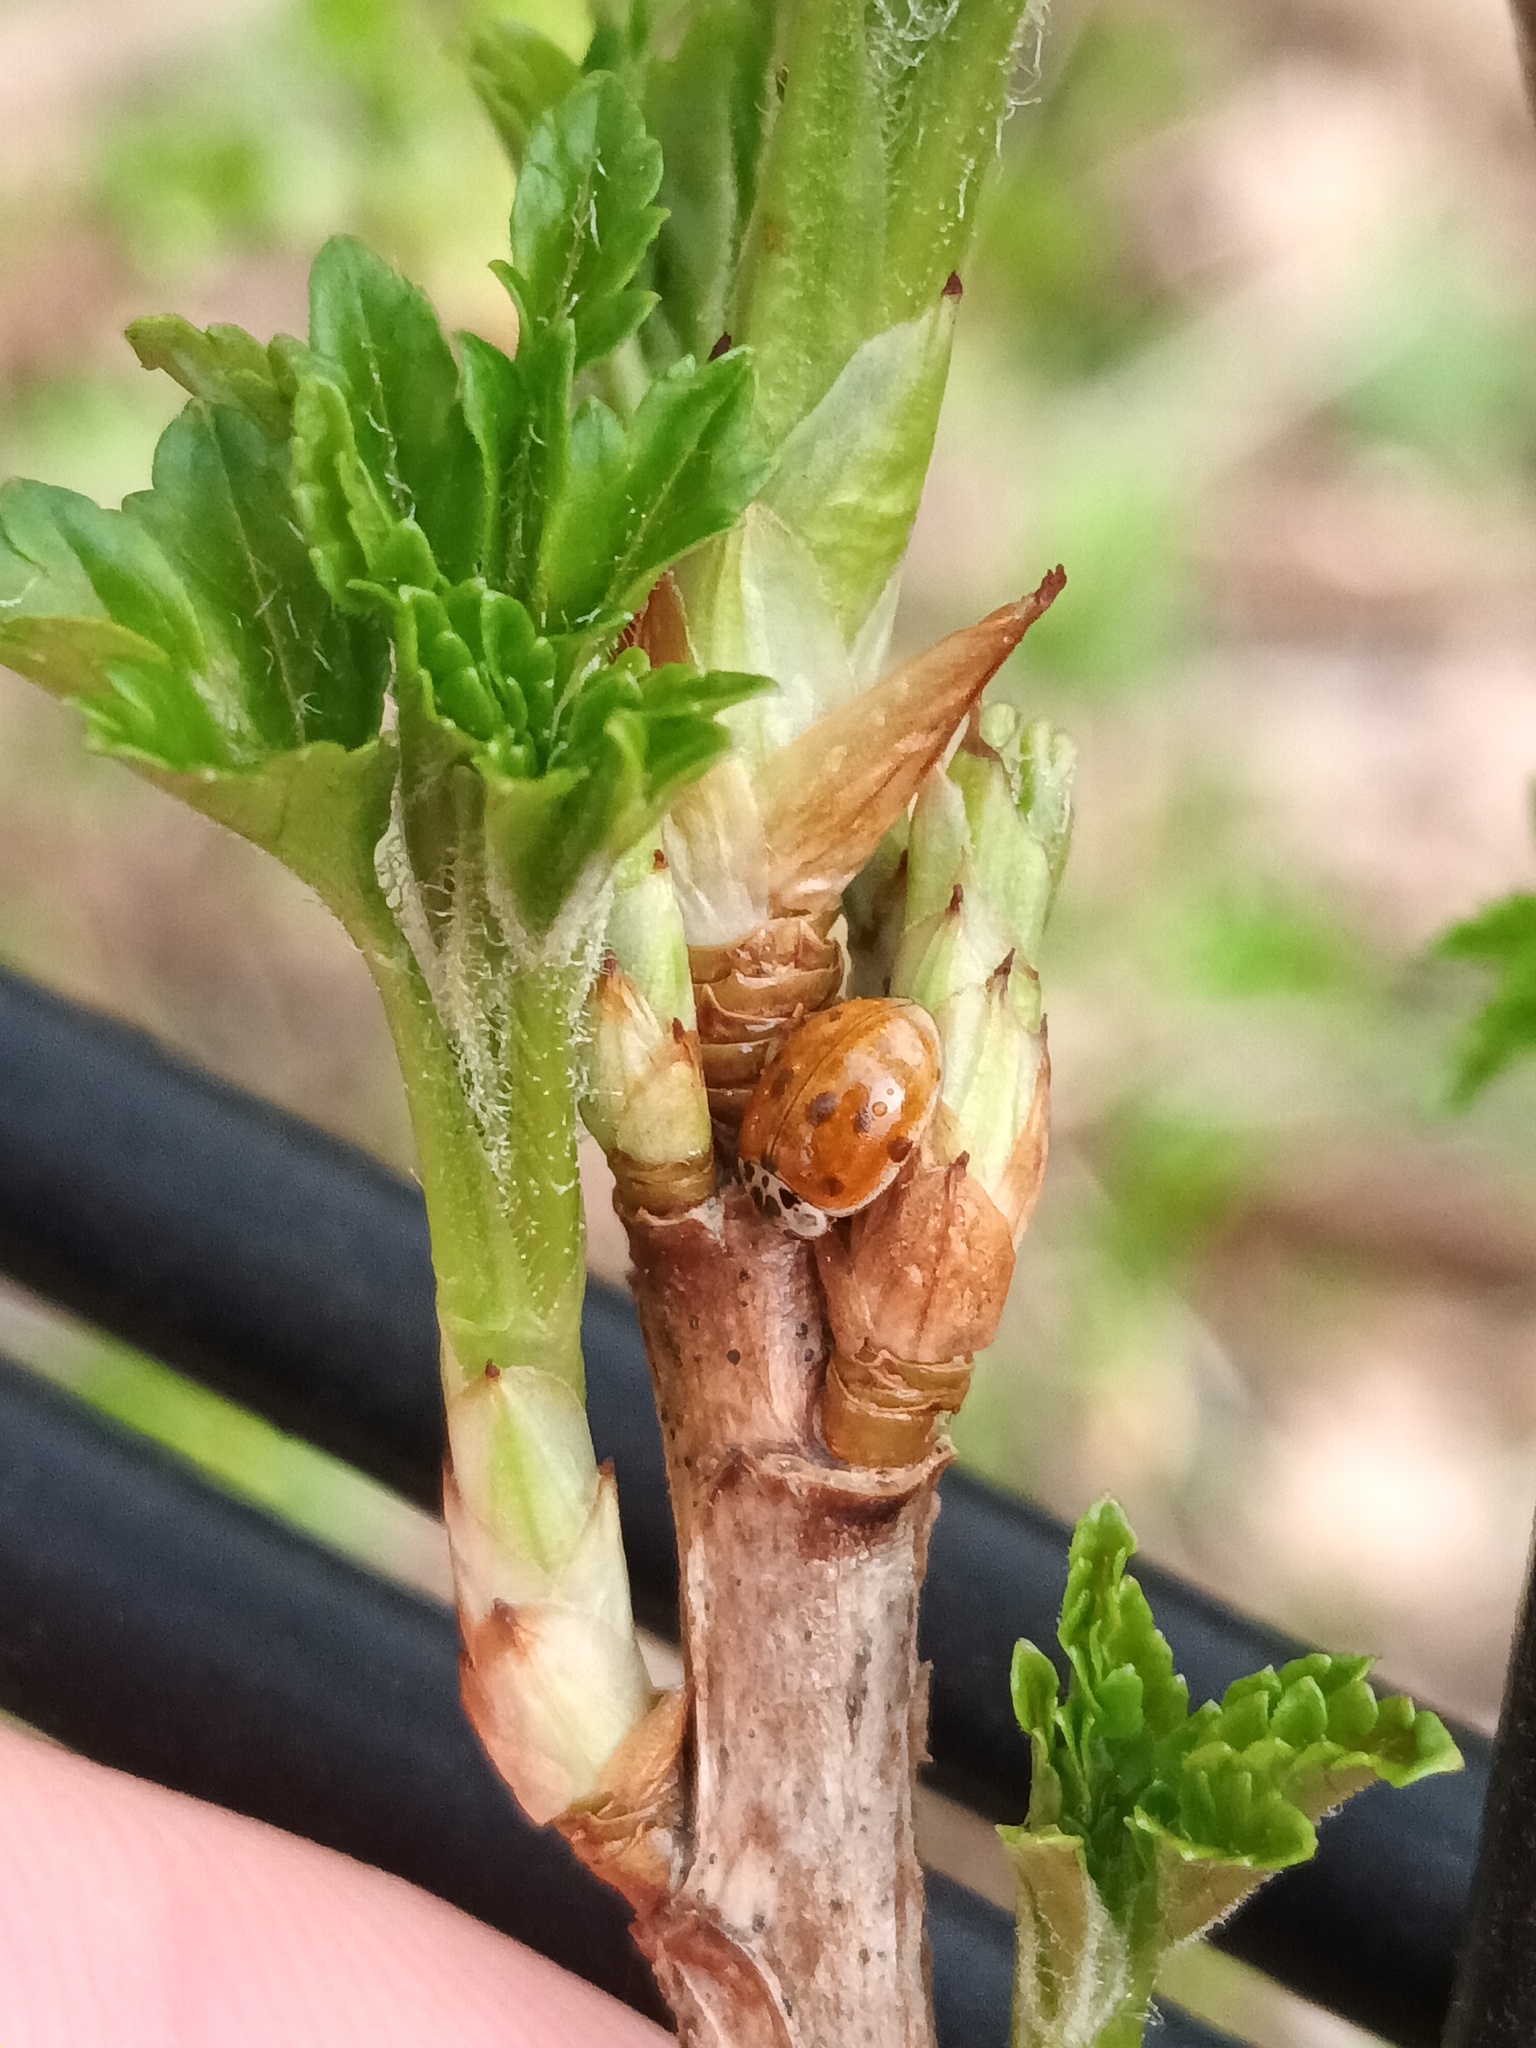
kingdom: Animalia
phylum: Arthropoda
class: Insecta
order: Coleoptera
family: Coccinellidae
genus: Adalia
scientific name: Adalia decempunctata
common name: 10-spot ladybird
